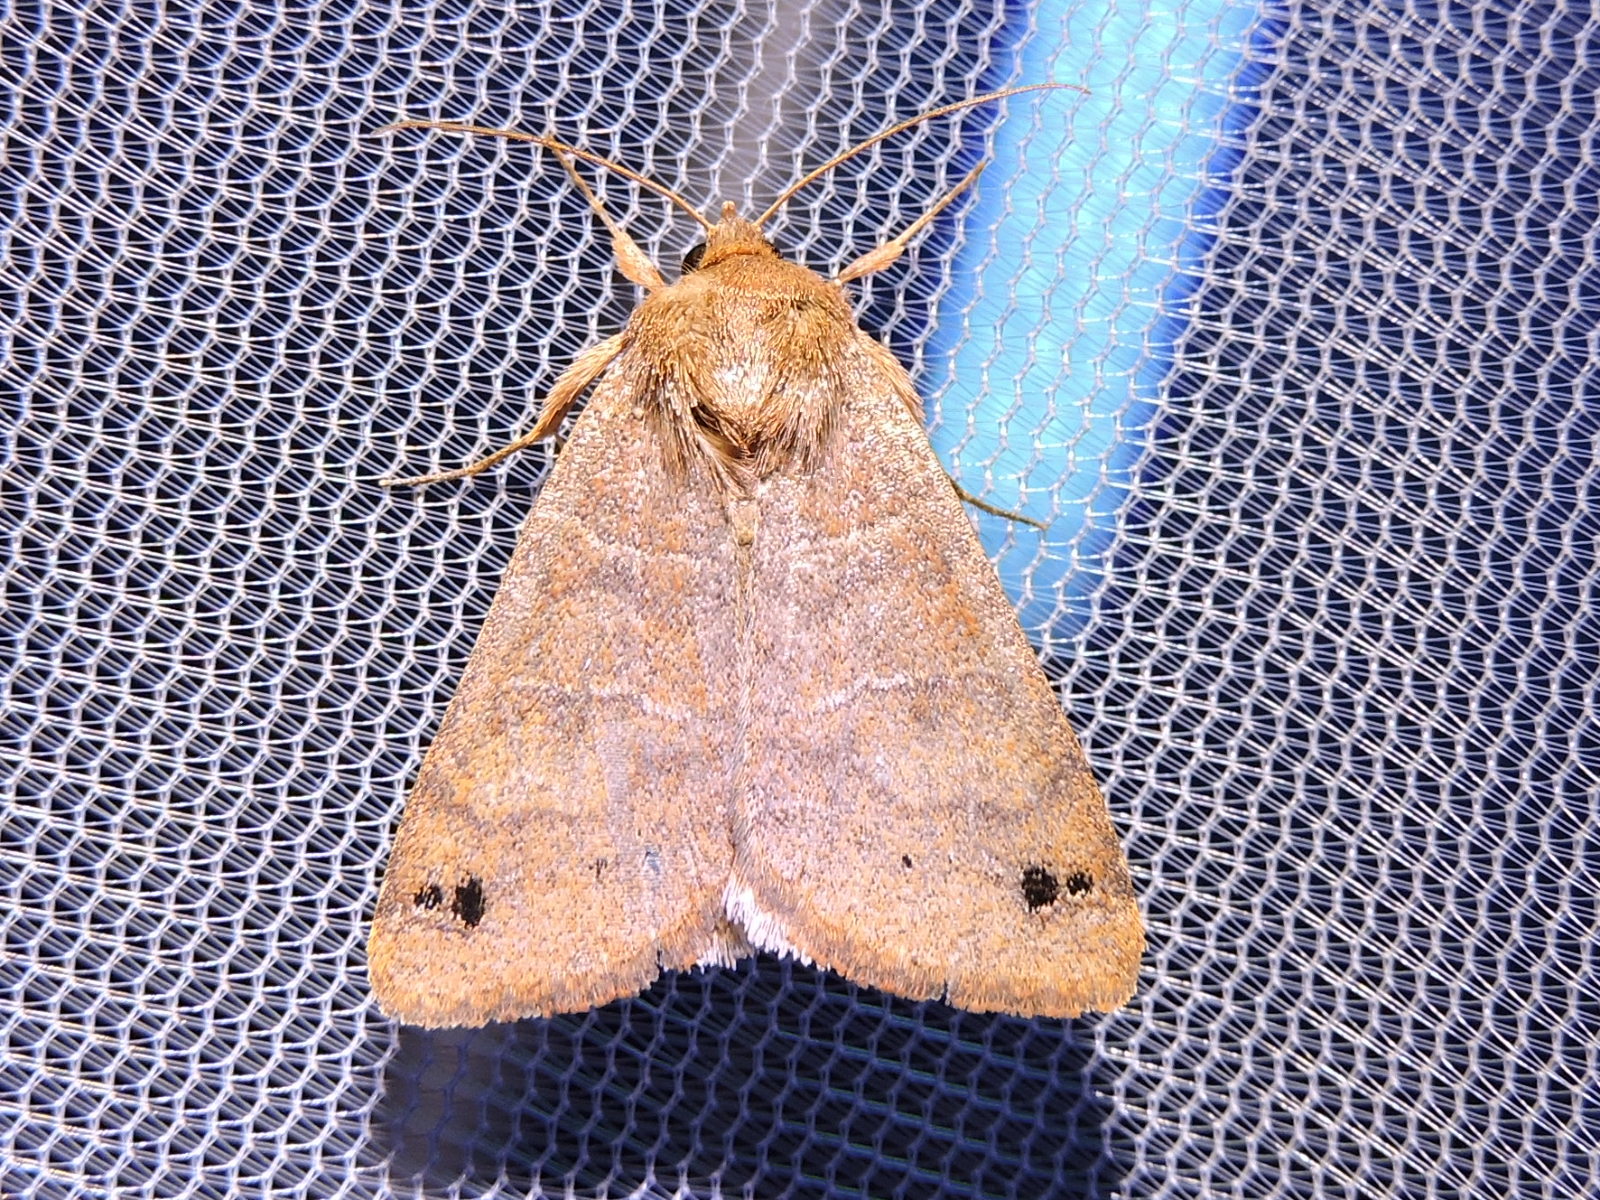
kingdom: Animalia
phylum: Arthropoda
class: Insecta
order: Lepidoptera
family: Erebidae
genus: Cissusa
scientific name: Cissusa spadix
